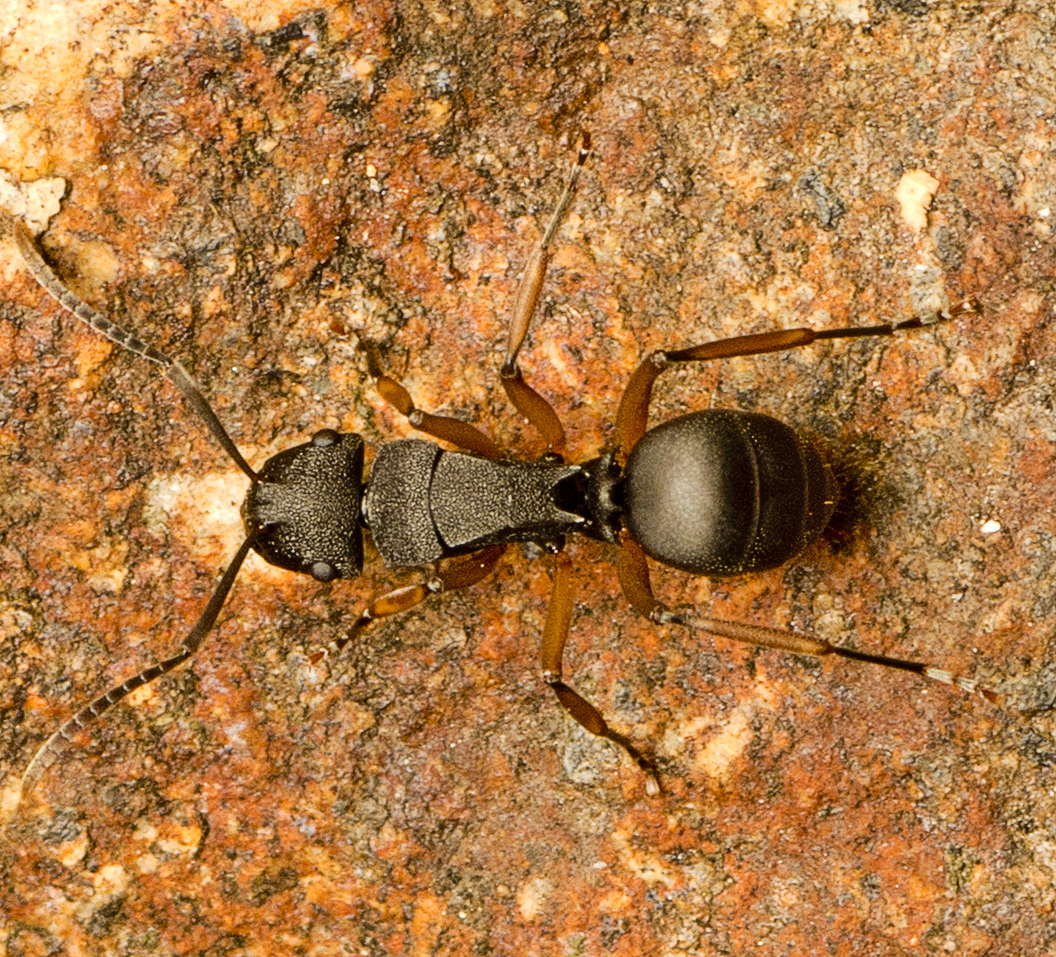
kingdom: Animalia
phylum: Arthropoda
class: Insecta
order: Hymenoptera
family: Formicidae
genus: Polyrhachis
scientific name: Polyrhachis leae
